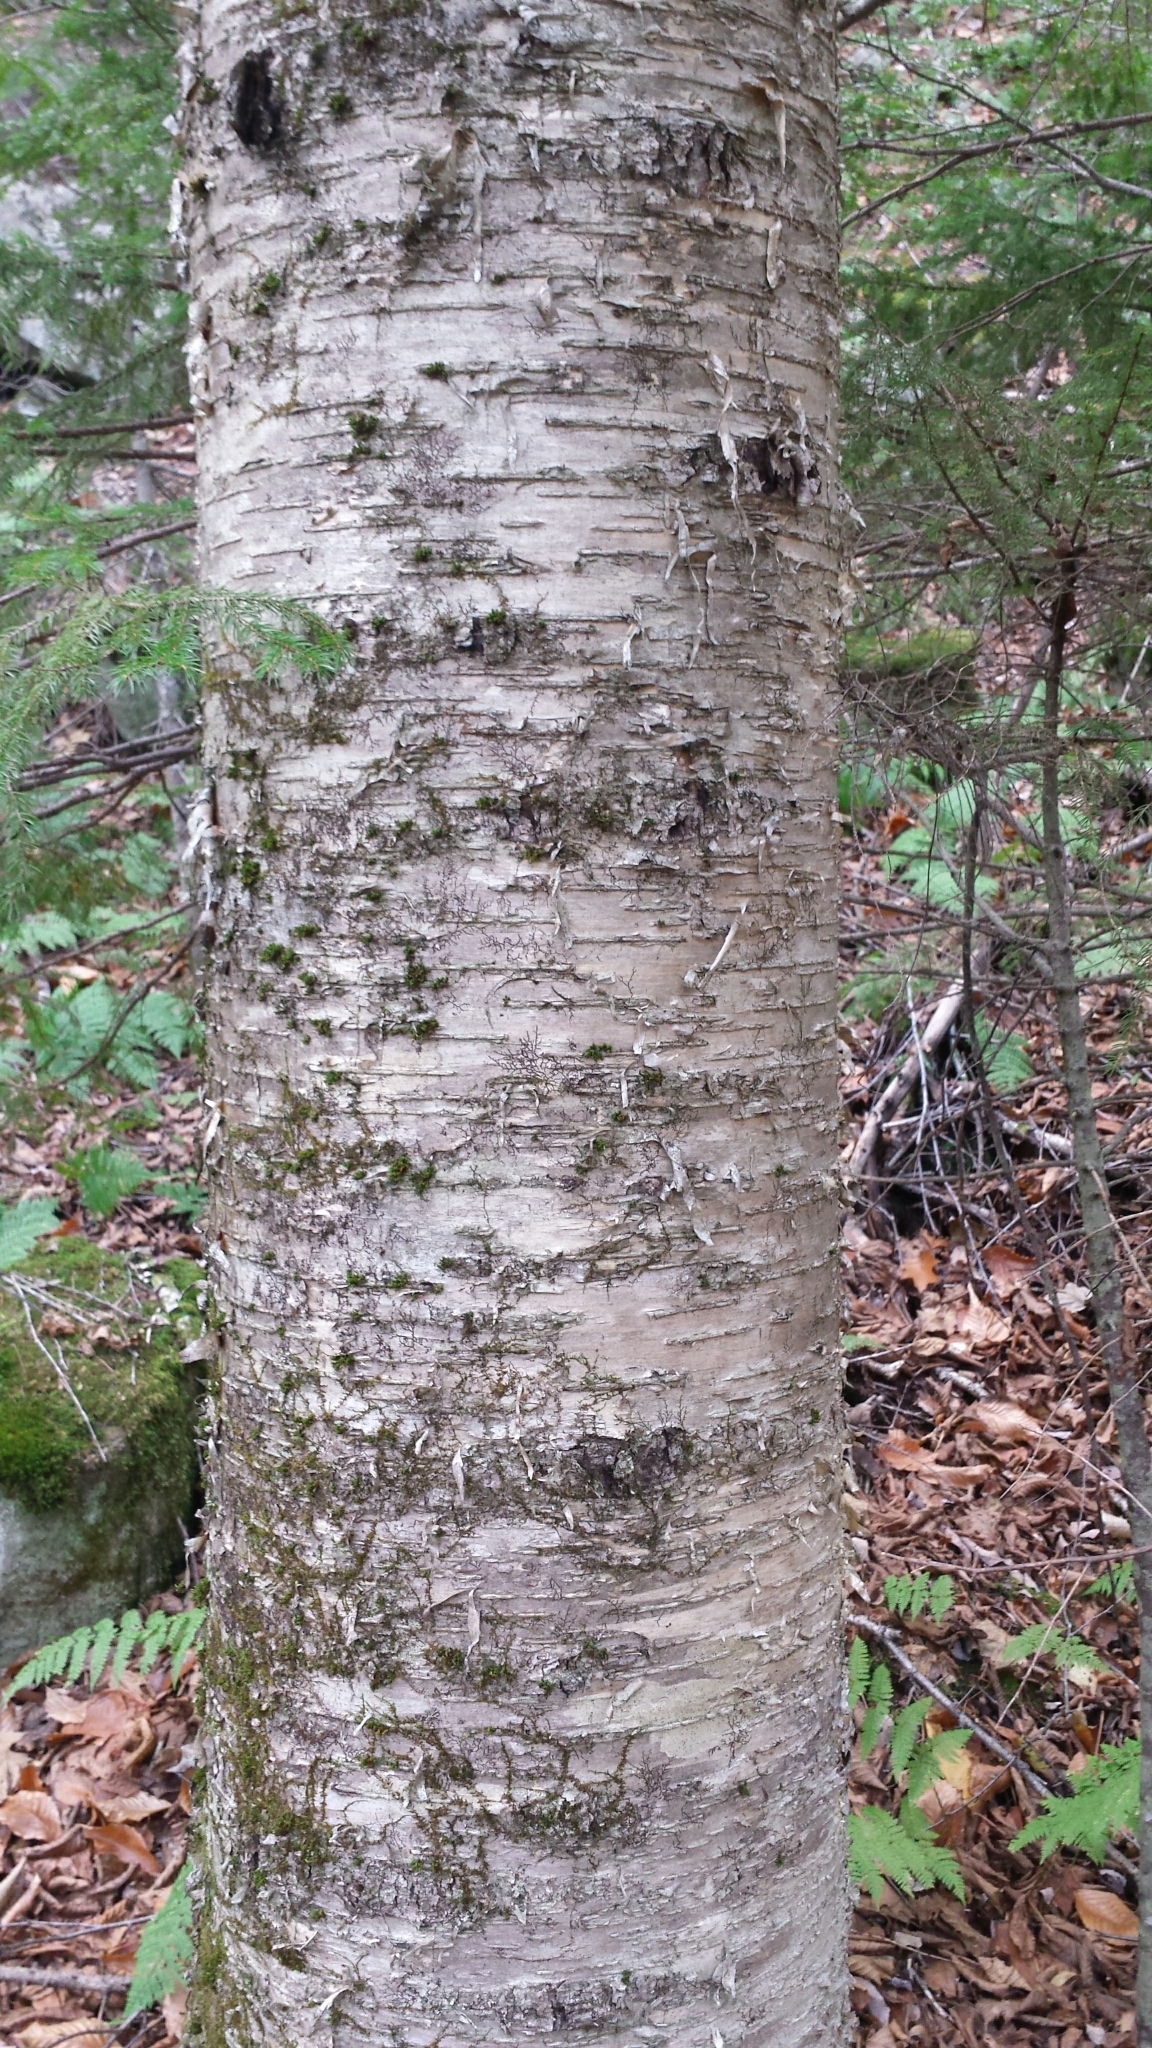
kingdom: Plantae
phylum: Tracheophyta
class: Magnoliopsida
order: Fagales
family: Betulaceae
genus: Betula
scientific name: Betula alleghaniensis
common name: Yellow birch
